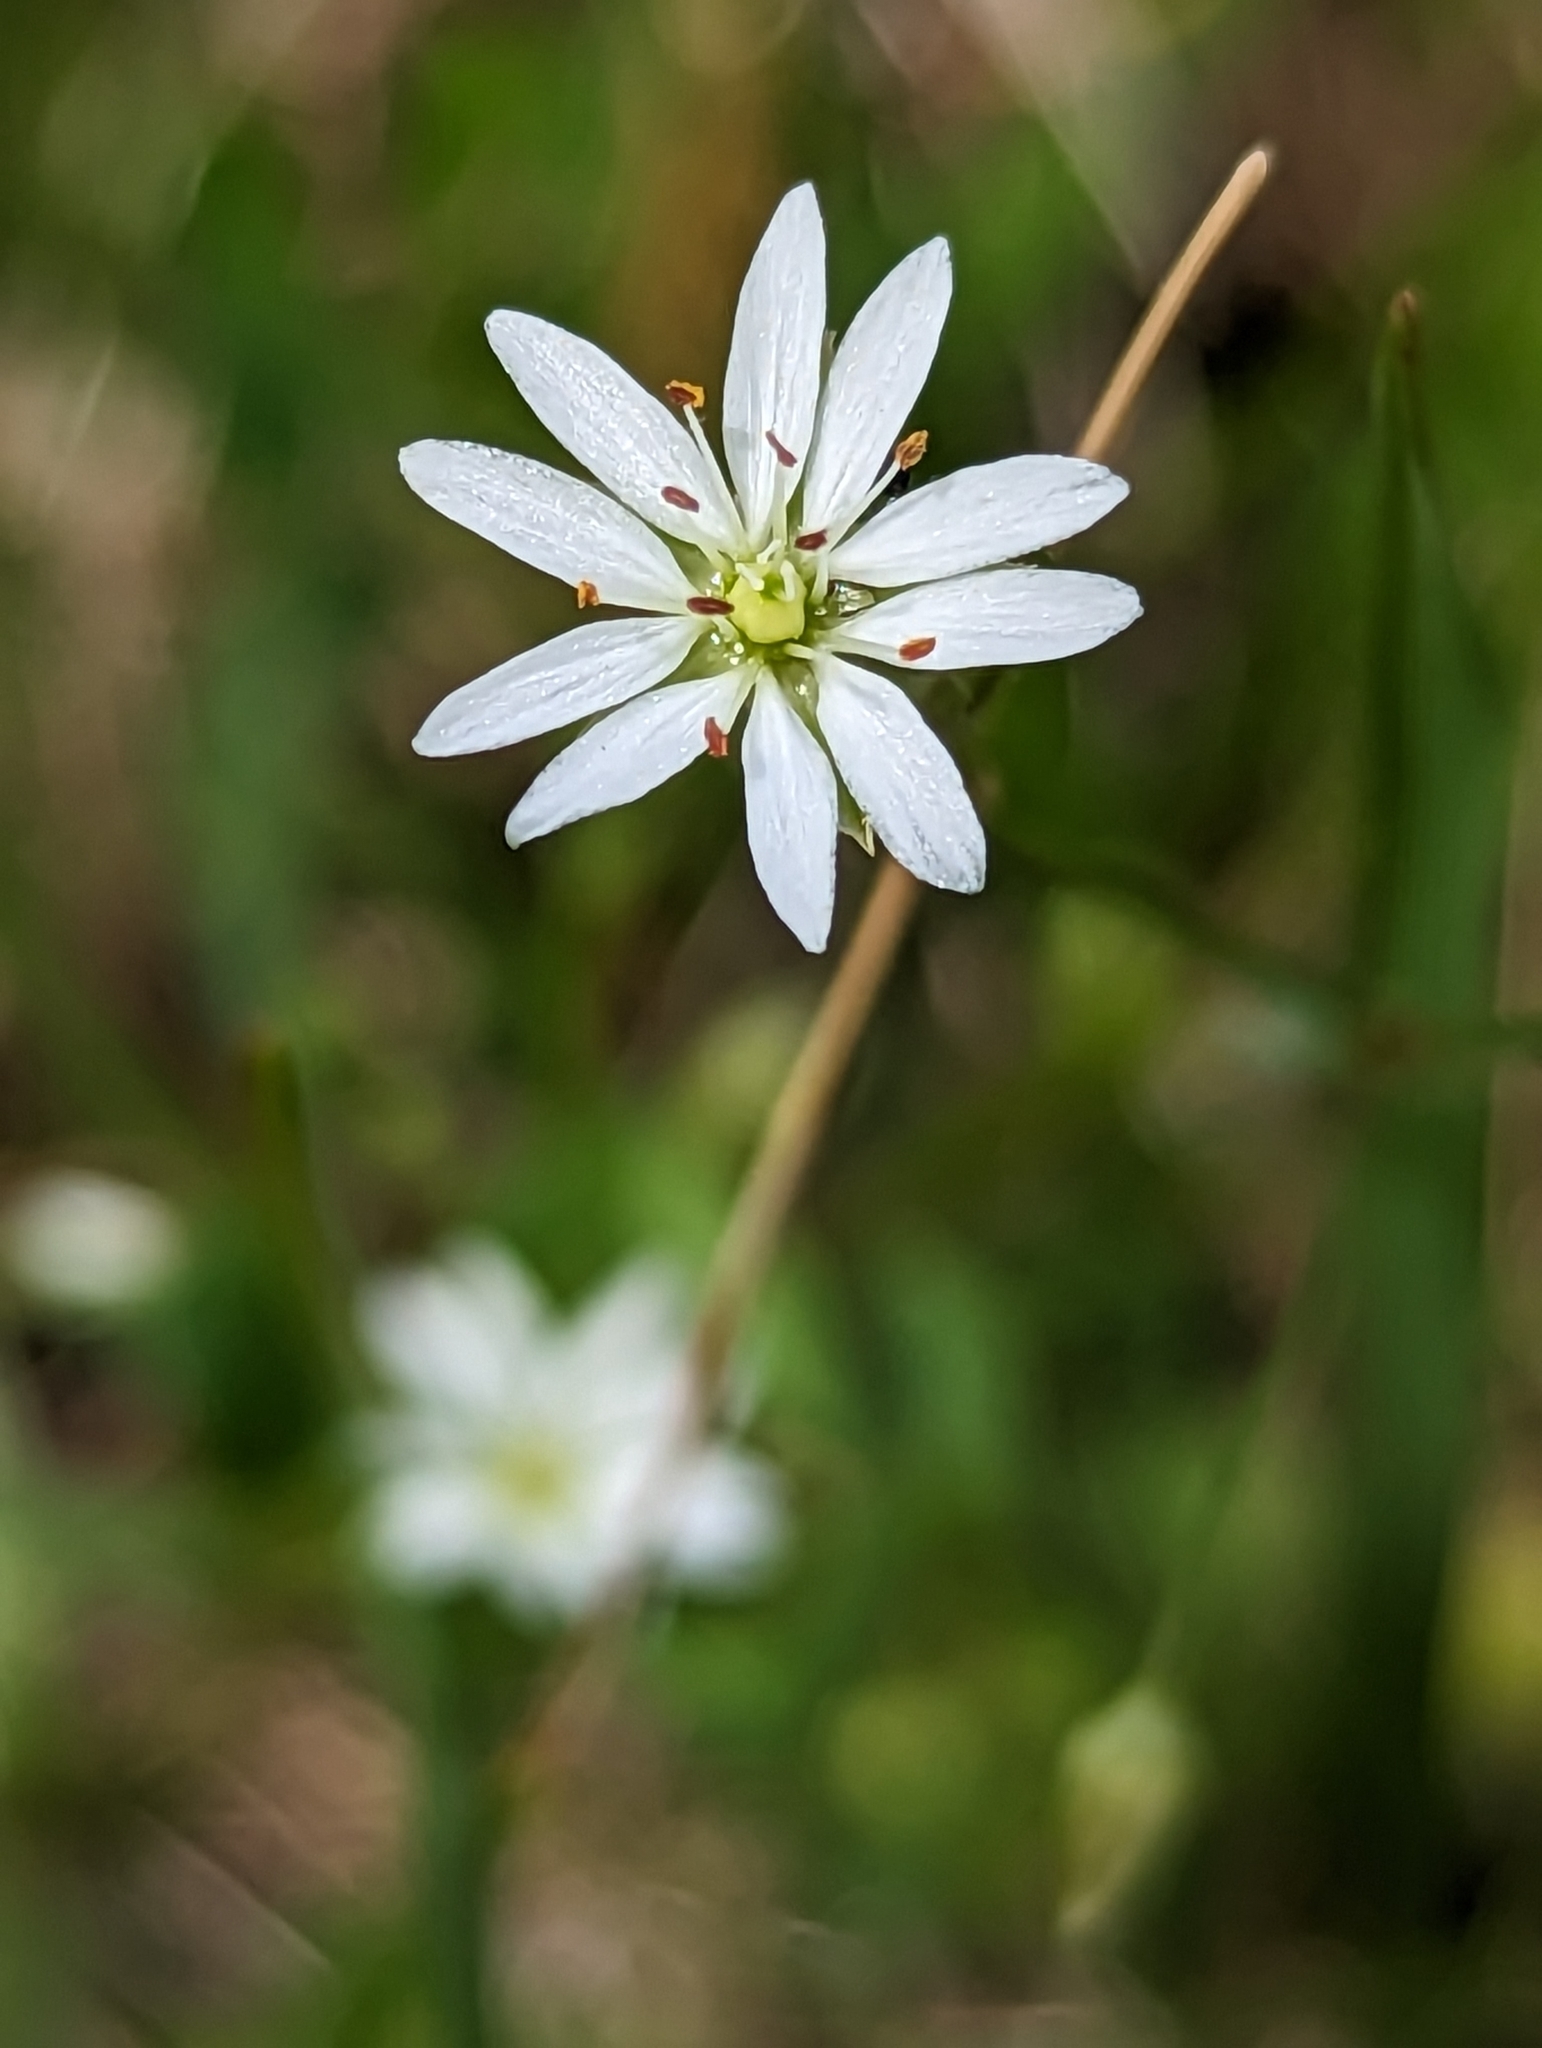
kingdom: Plantae
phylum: Tracheophyta
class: Magnoliopsida
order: Caryophyllales
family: Caryophyllaceae
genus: Stellaria
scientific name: Stellaria graminea
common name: Grass-like starwort
